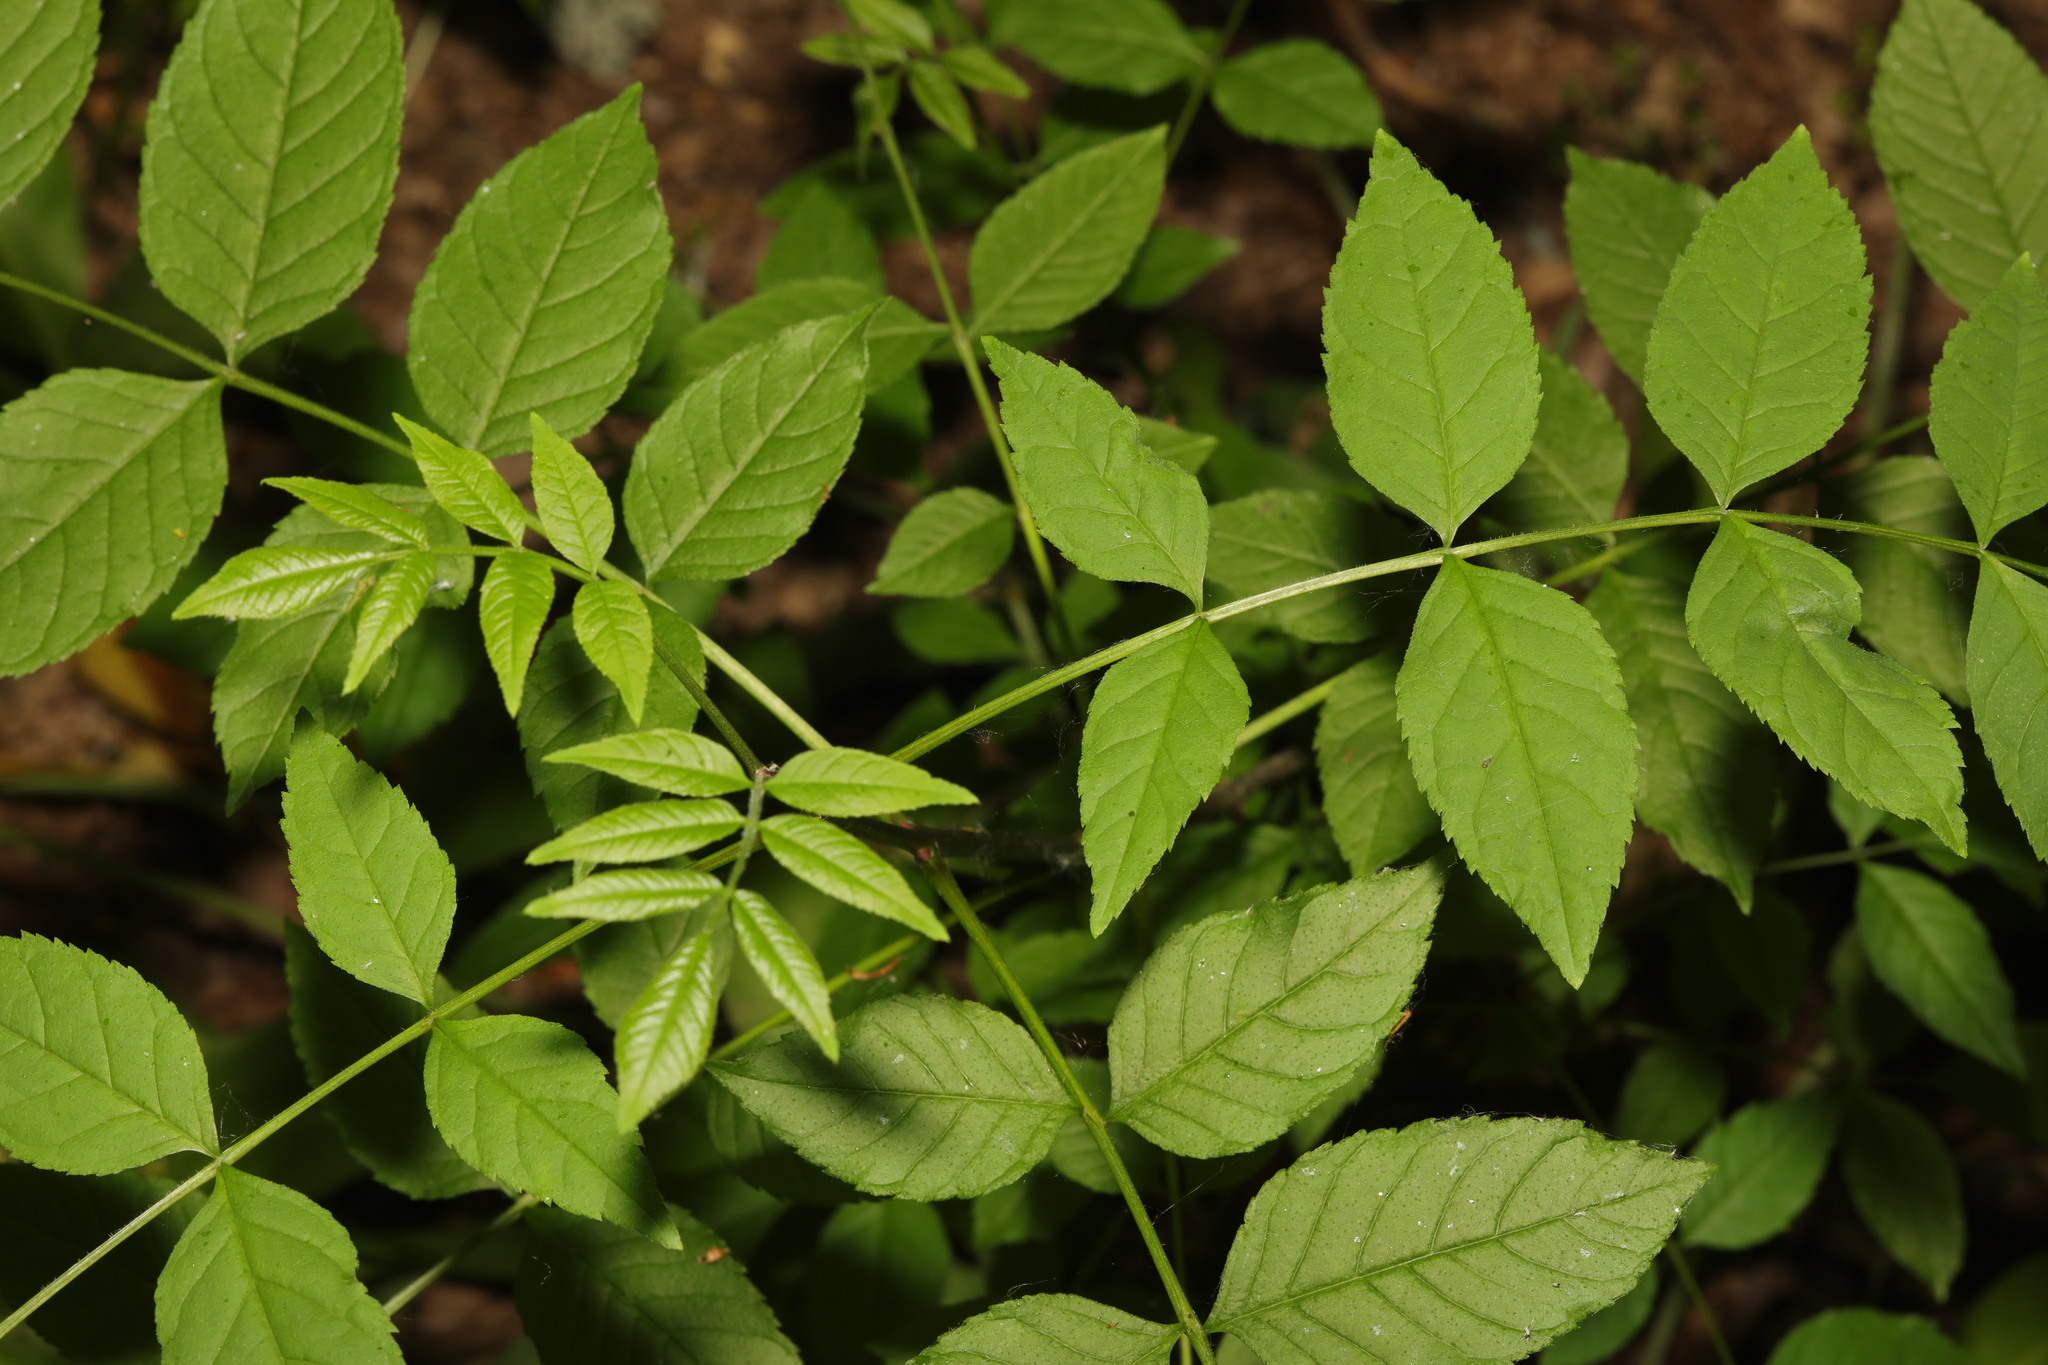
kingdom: Plantae
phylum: Tracheophyta
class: Magnoliopsida
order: Lamiales
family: Oleaceae
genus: Fraxinus
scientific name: Fraxinus excelsior
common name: European ash
